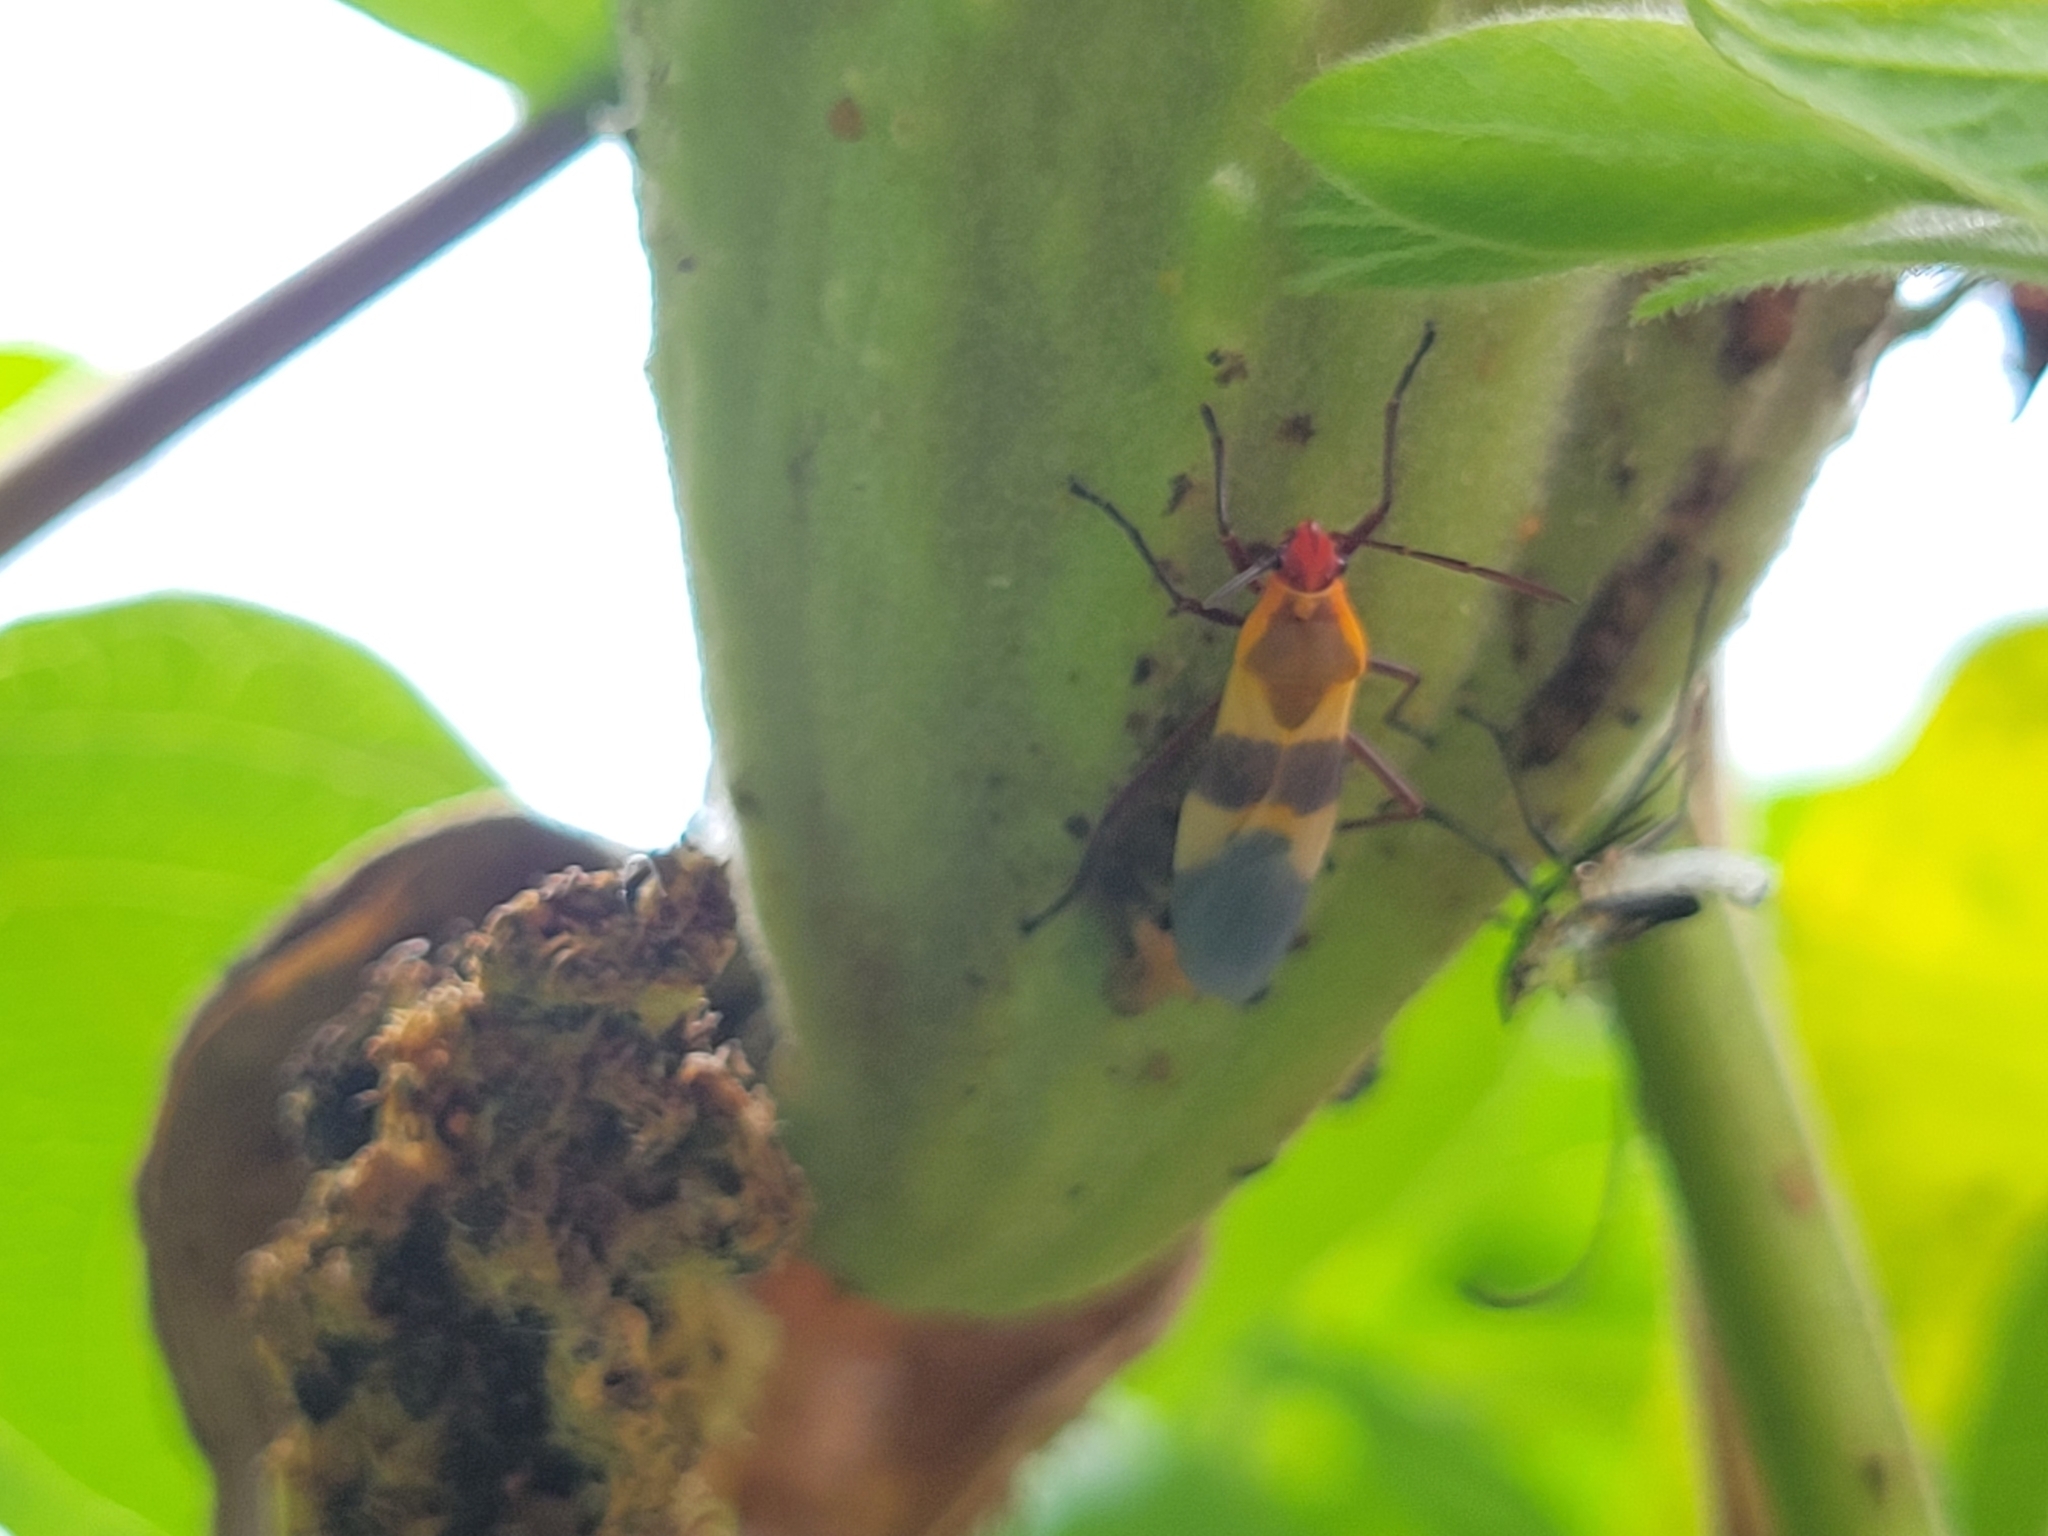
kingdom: Animalia
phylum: Arthropoda
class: Insecta
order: Hemiptera
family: Lygaeidae
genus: Oncopeltus
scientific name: Oncopeltus fasciatus
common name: Large milkweed bug
